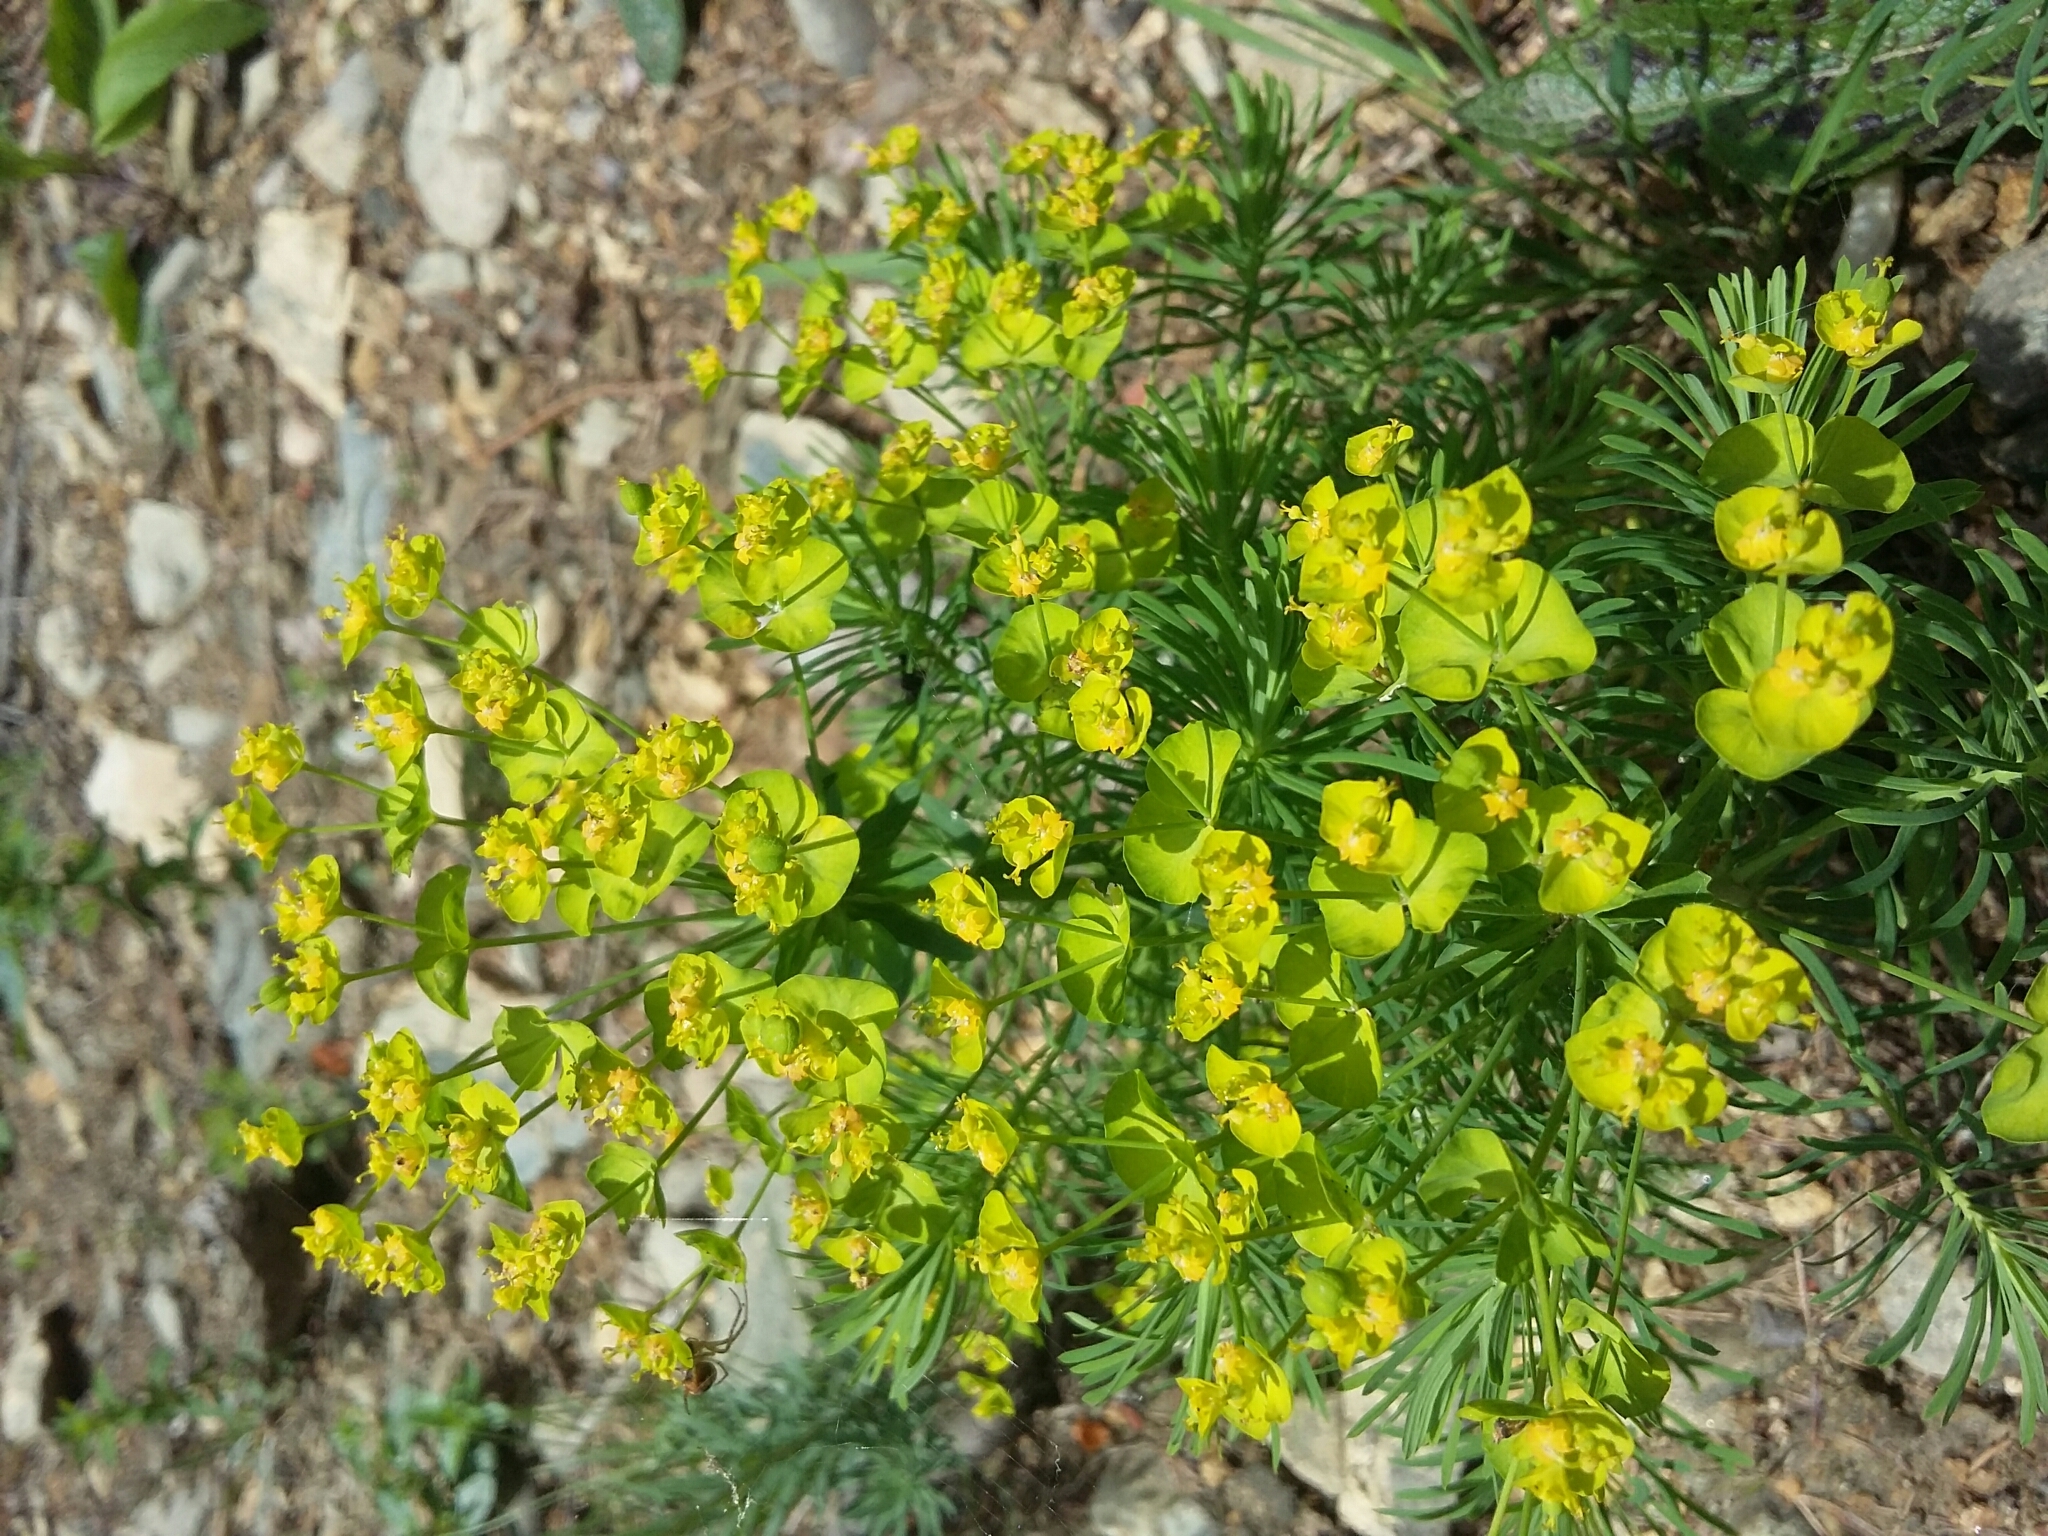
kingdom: Plantae
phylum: Tracheophyta
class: Magnoliopsida
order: Malpighiales
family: Euphorbiaceae
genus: Euphorbia
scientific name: Euphorbia cyparissias
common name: Cypress spurge
